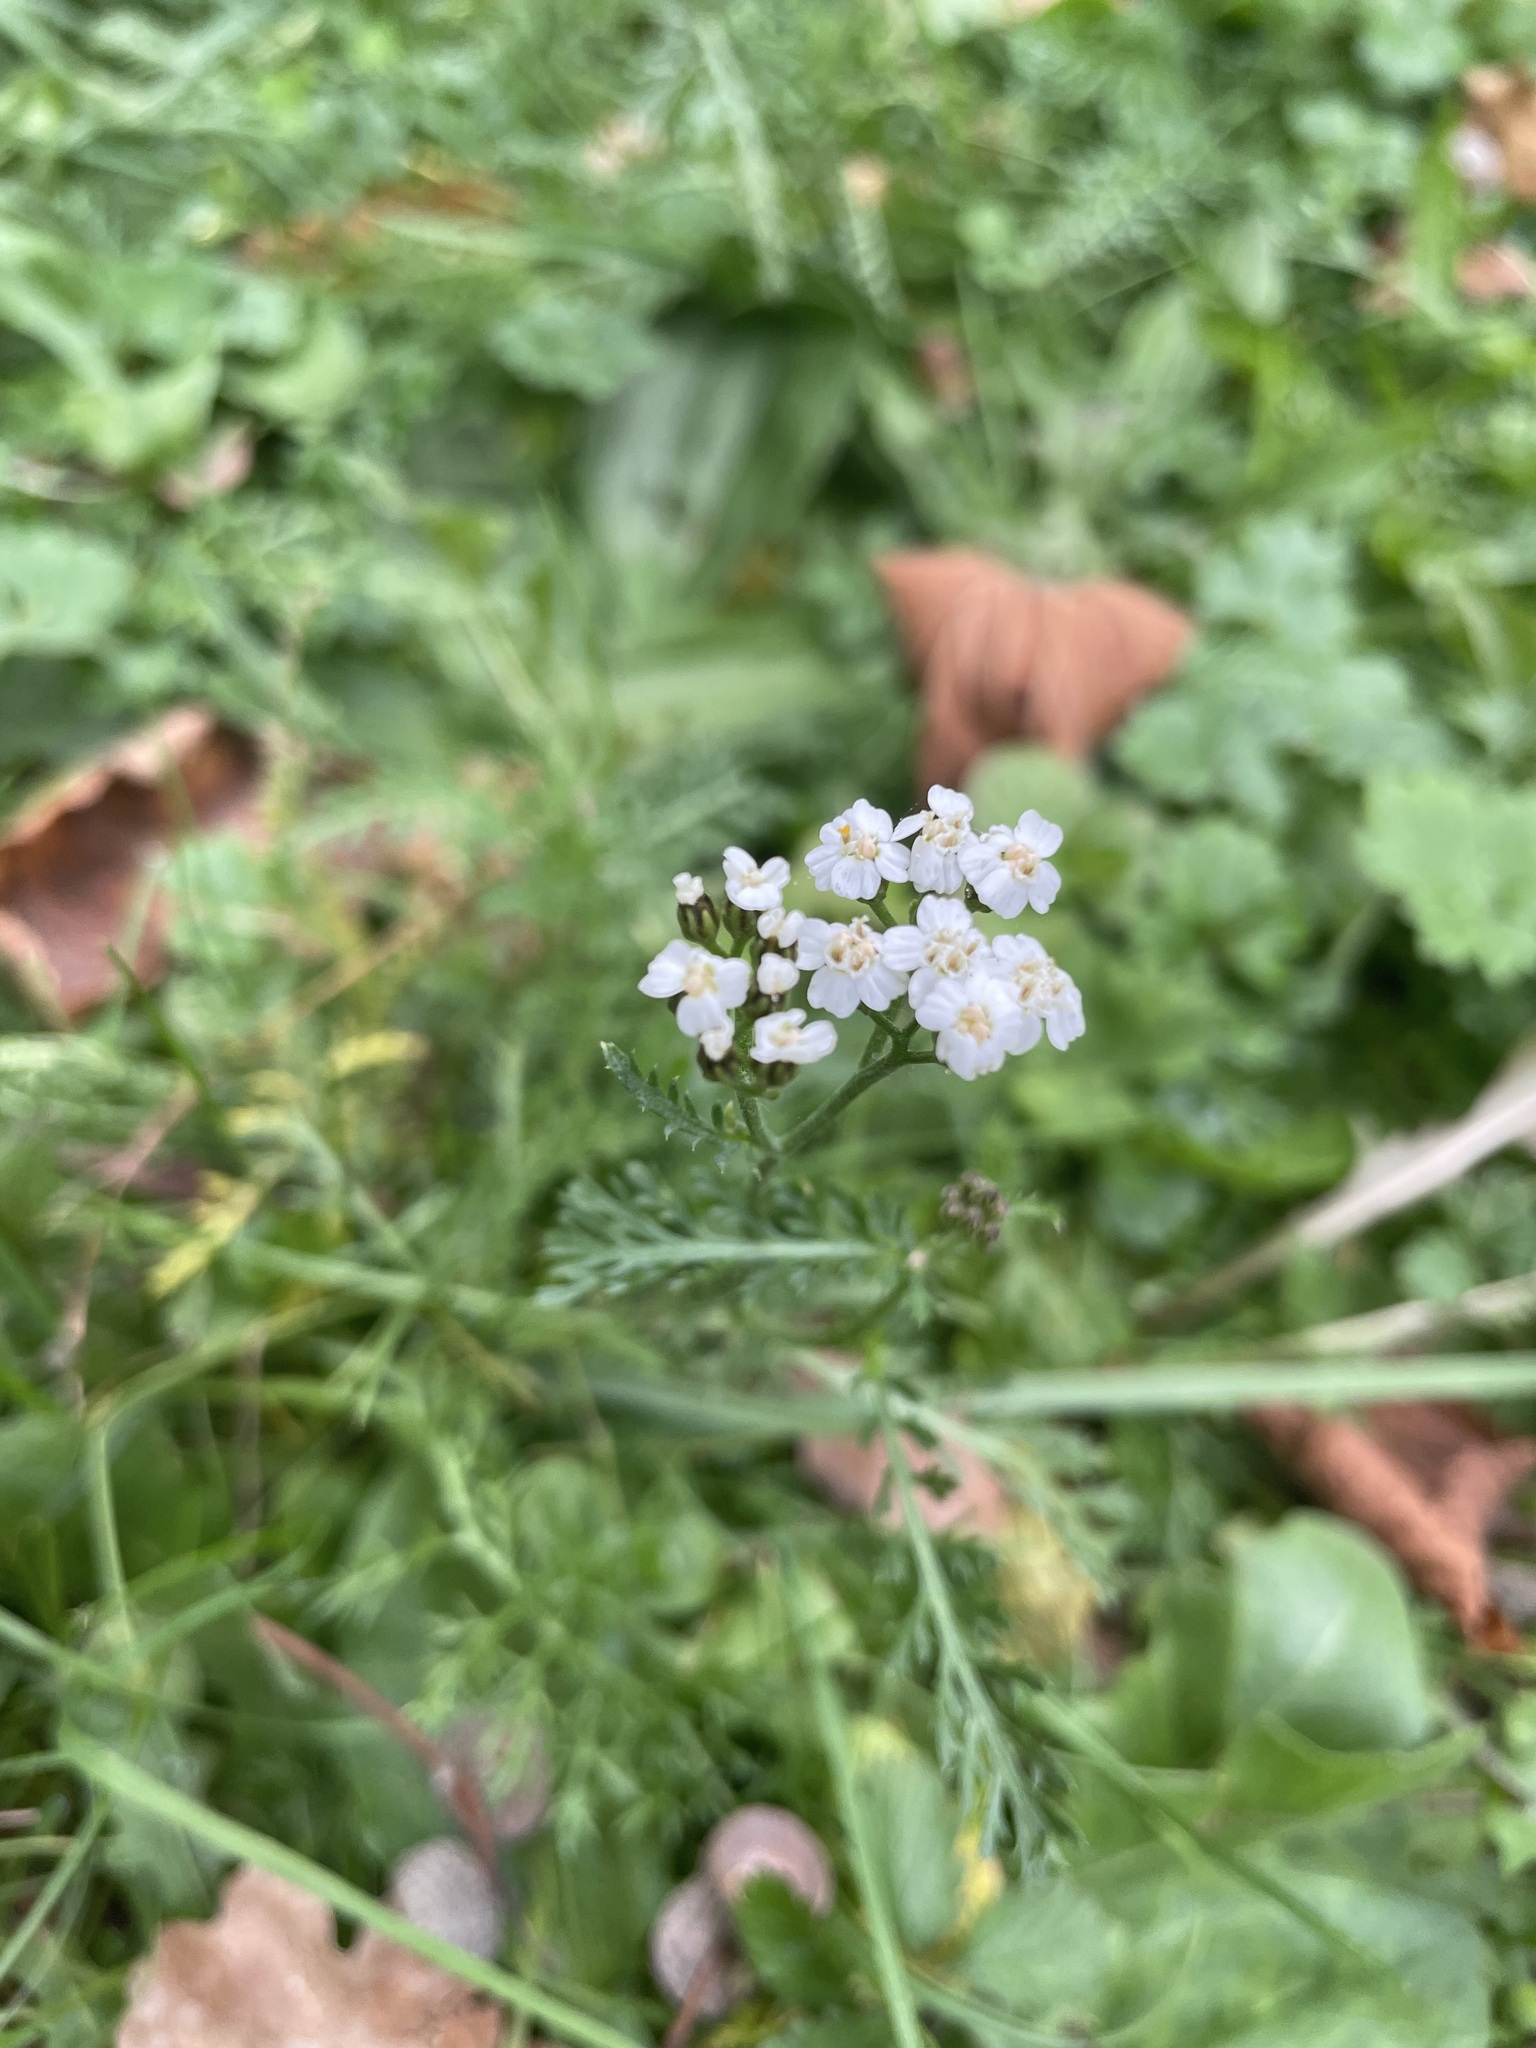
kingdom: Plantae
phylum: Tracheophyta
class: Magnoliopsida
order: Asterales
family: Asteraceae
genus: Achillea
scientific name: Achillea
